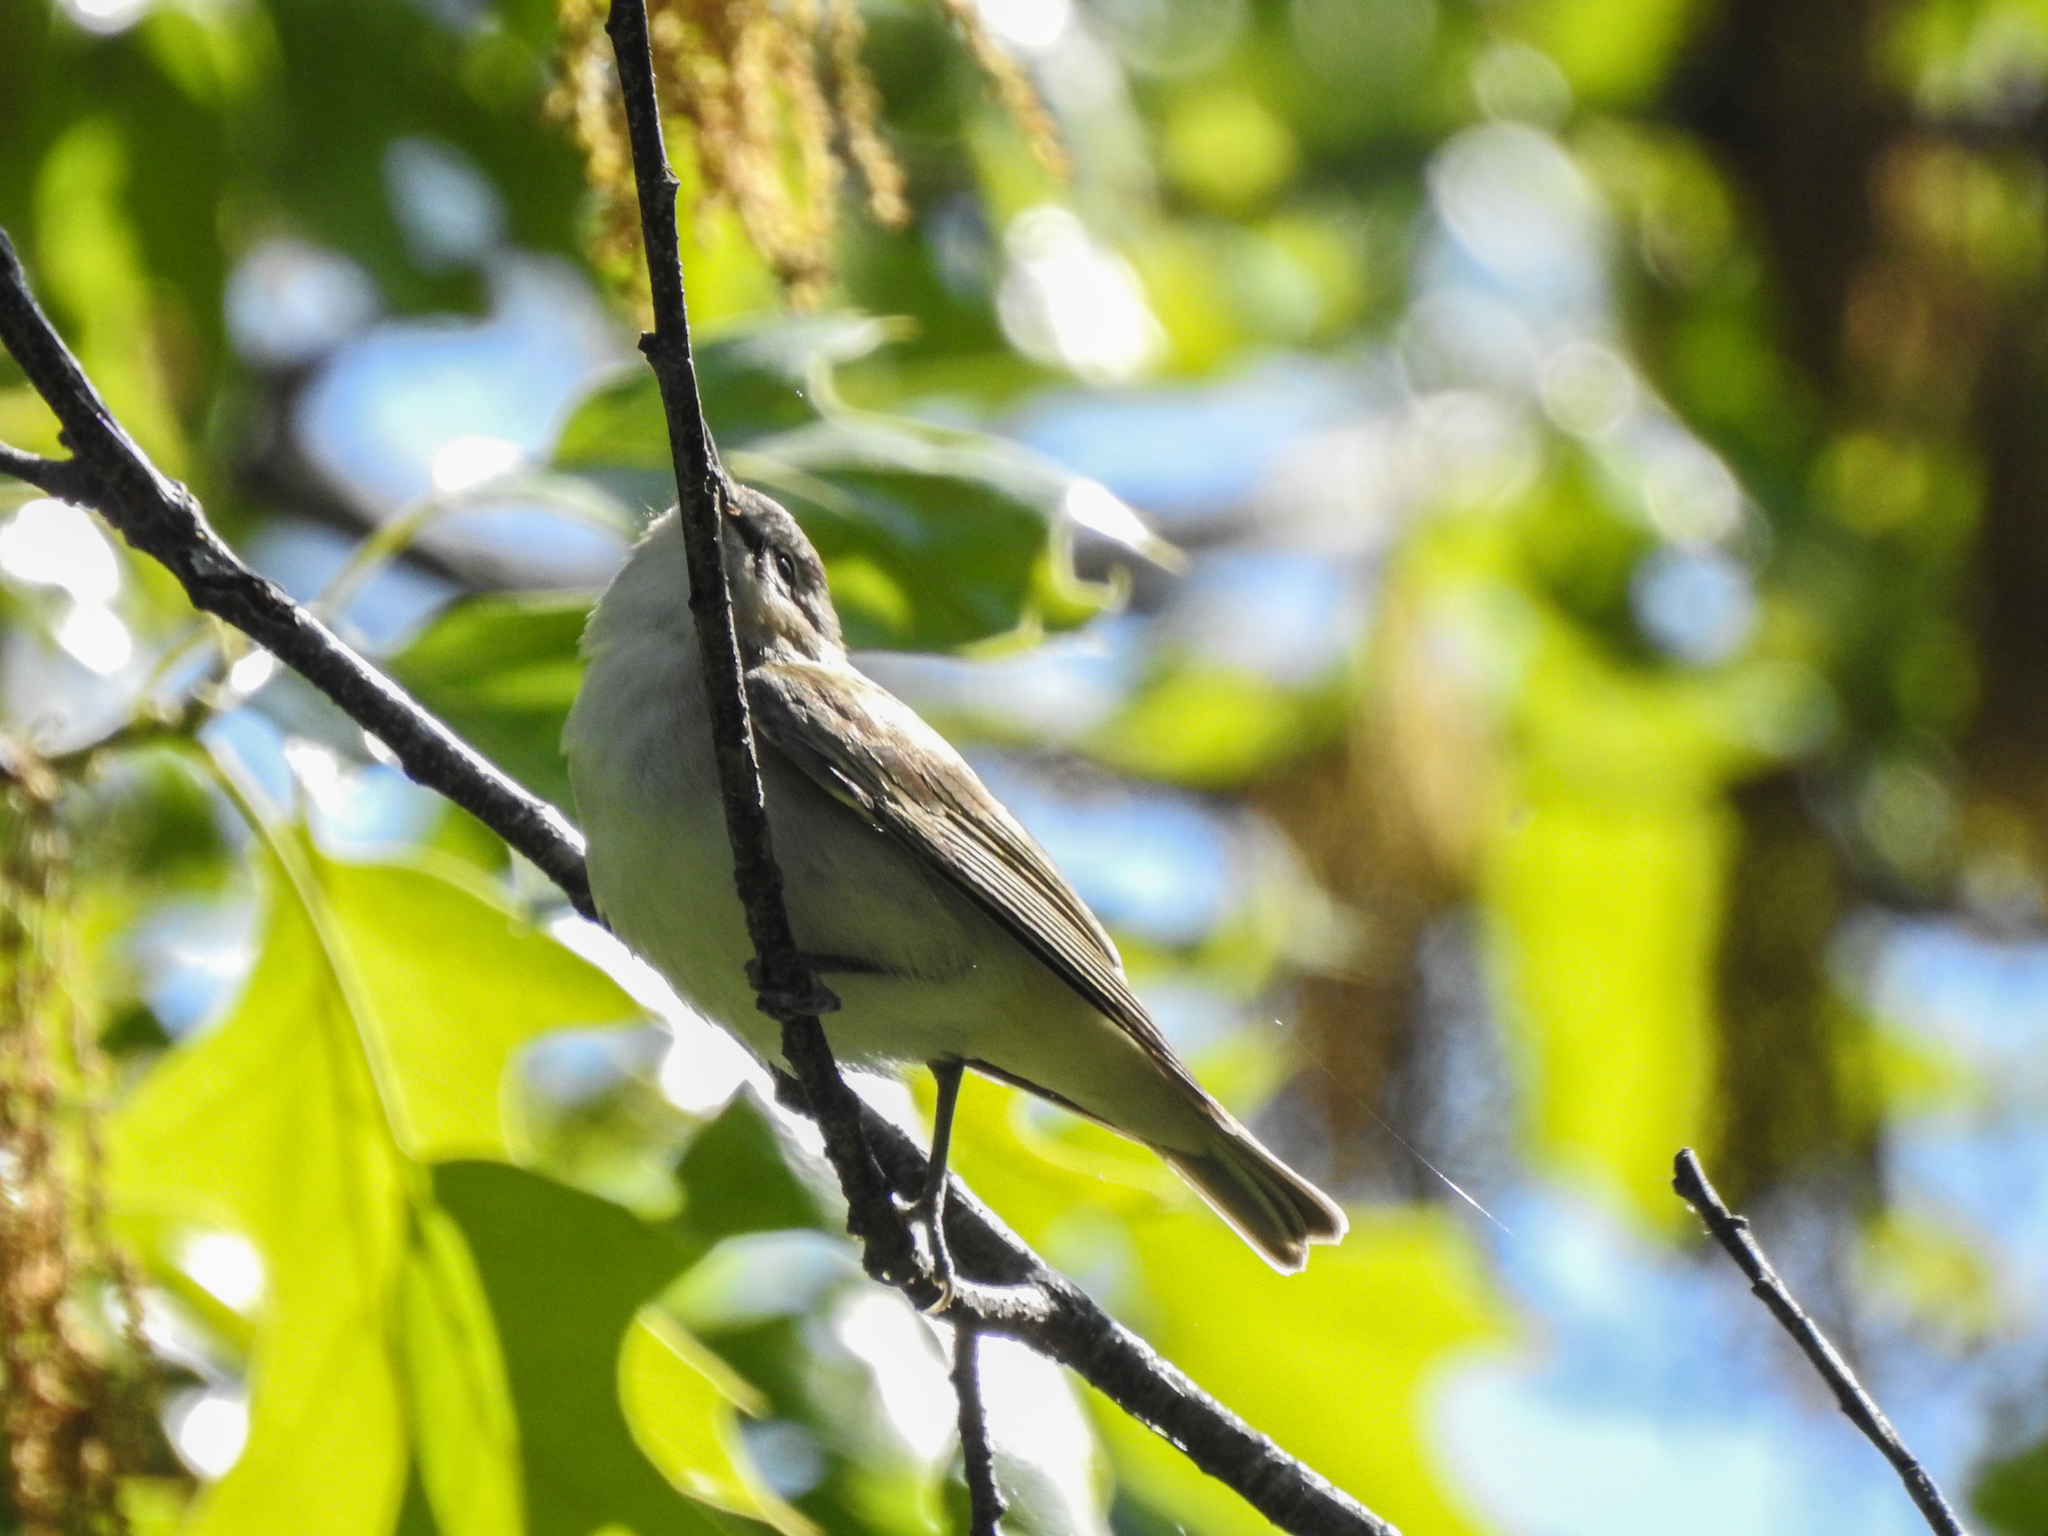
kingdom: Animalia
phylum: Chordata
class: Aves
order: Passeriformes
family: Vireonidae
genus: Vireo
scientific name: Vireo olivaceus
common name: Red-eyed vireo
